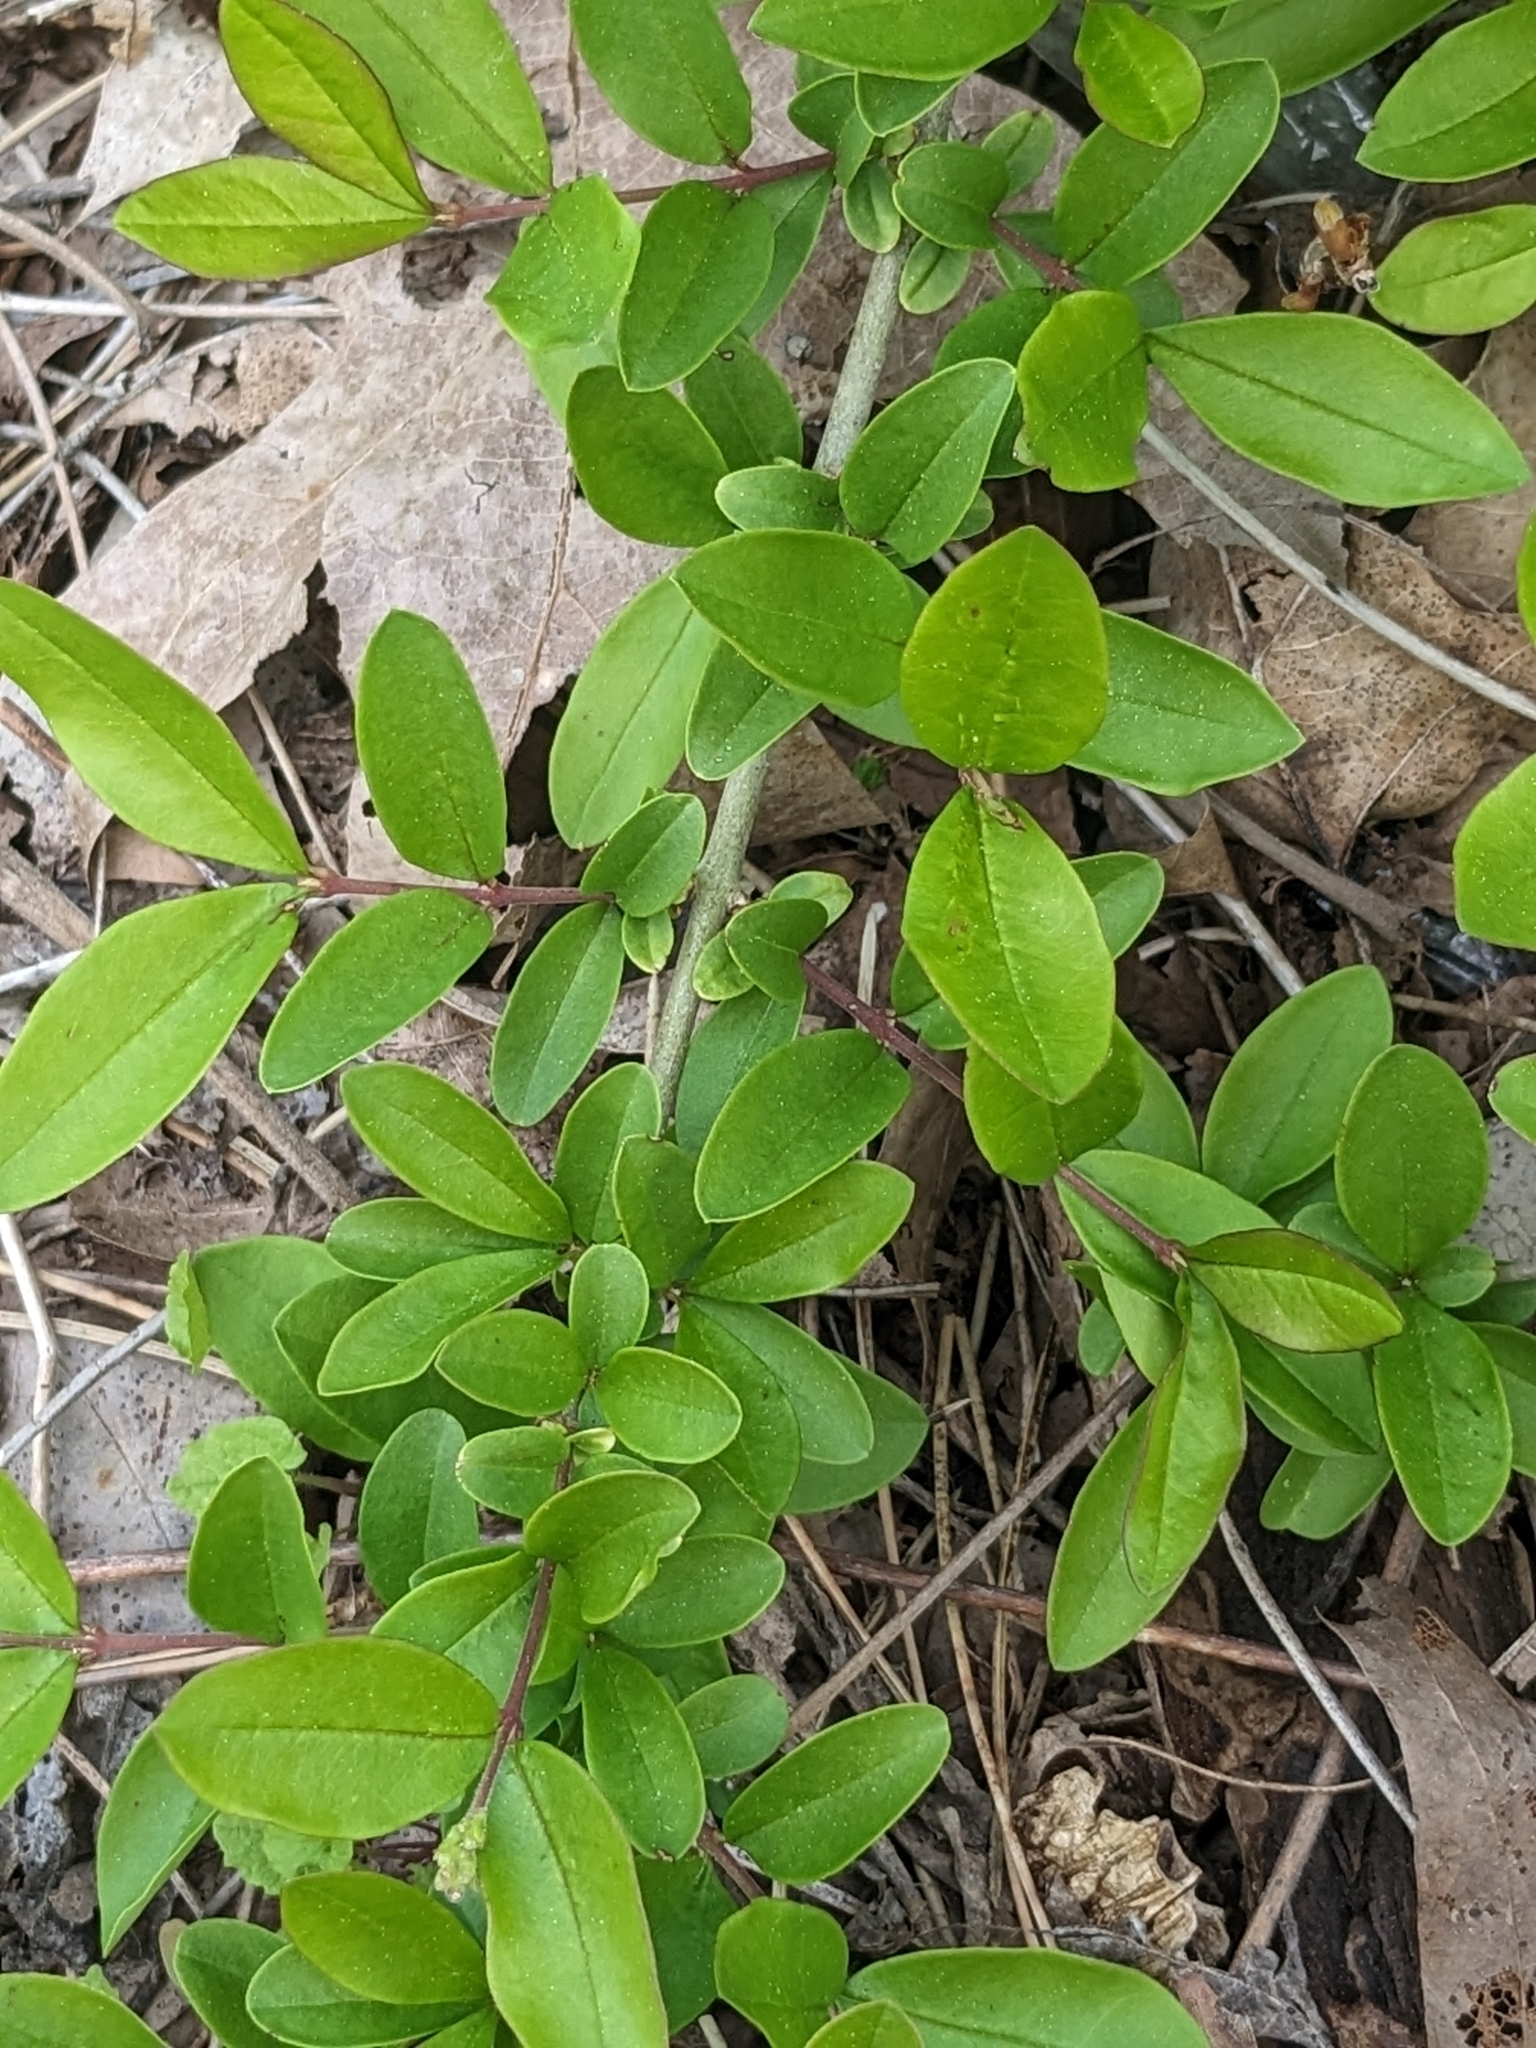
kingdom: Plantae
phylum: Tracheophyta
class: Magnoliopsida
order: Lamiales
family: Oleaceae
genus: Ligustrum
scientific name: Ligustrum obtusifolium
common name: Border privet
